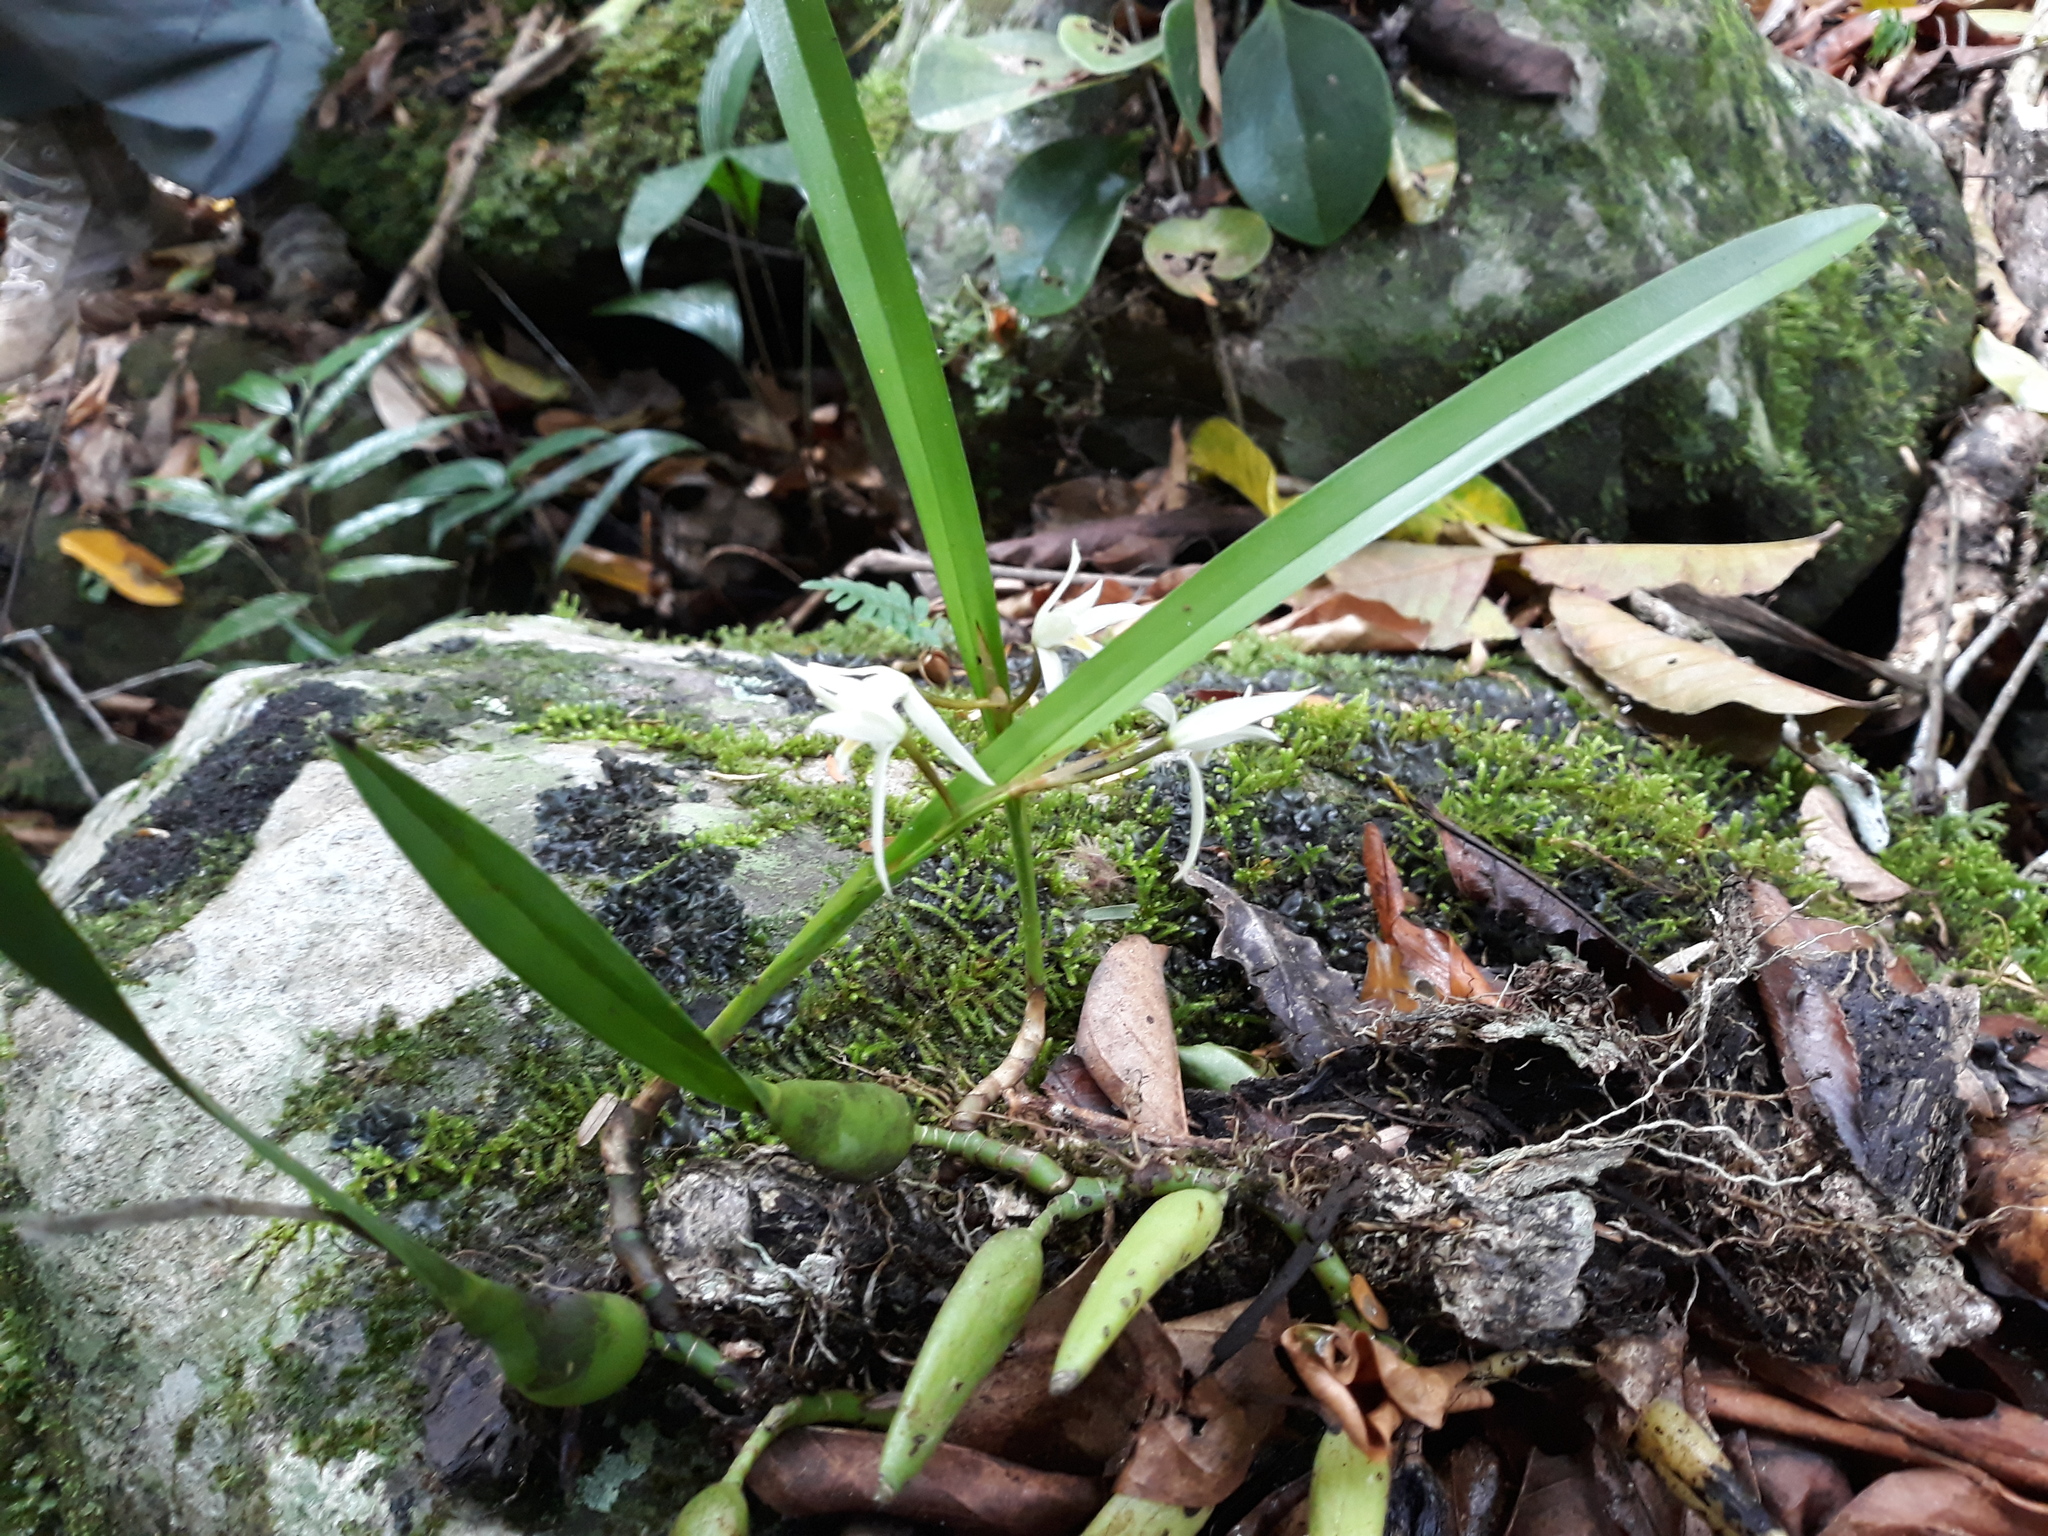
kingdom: Plantae
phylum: Tracheophyta
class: Liliopsida
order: Asparagales
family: Orchidaceae
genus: Nidema
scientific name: Nidema boothii
